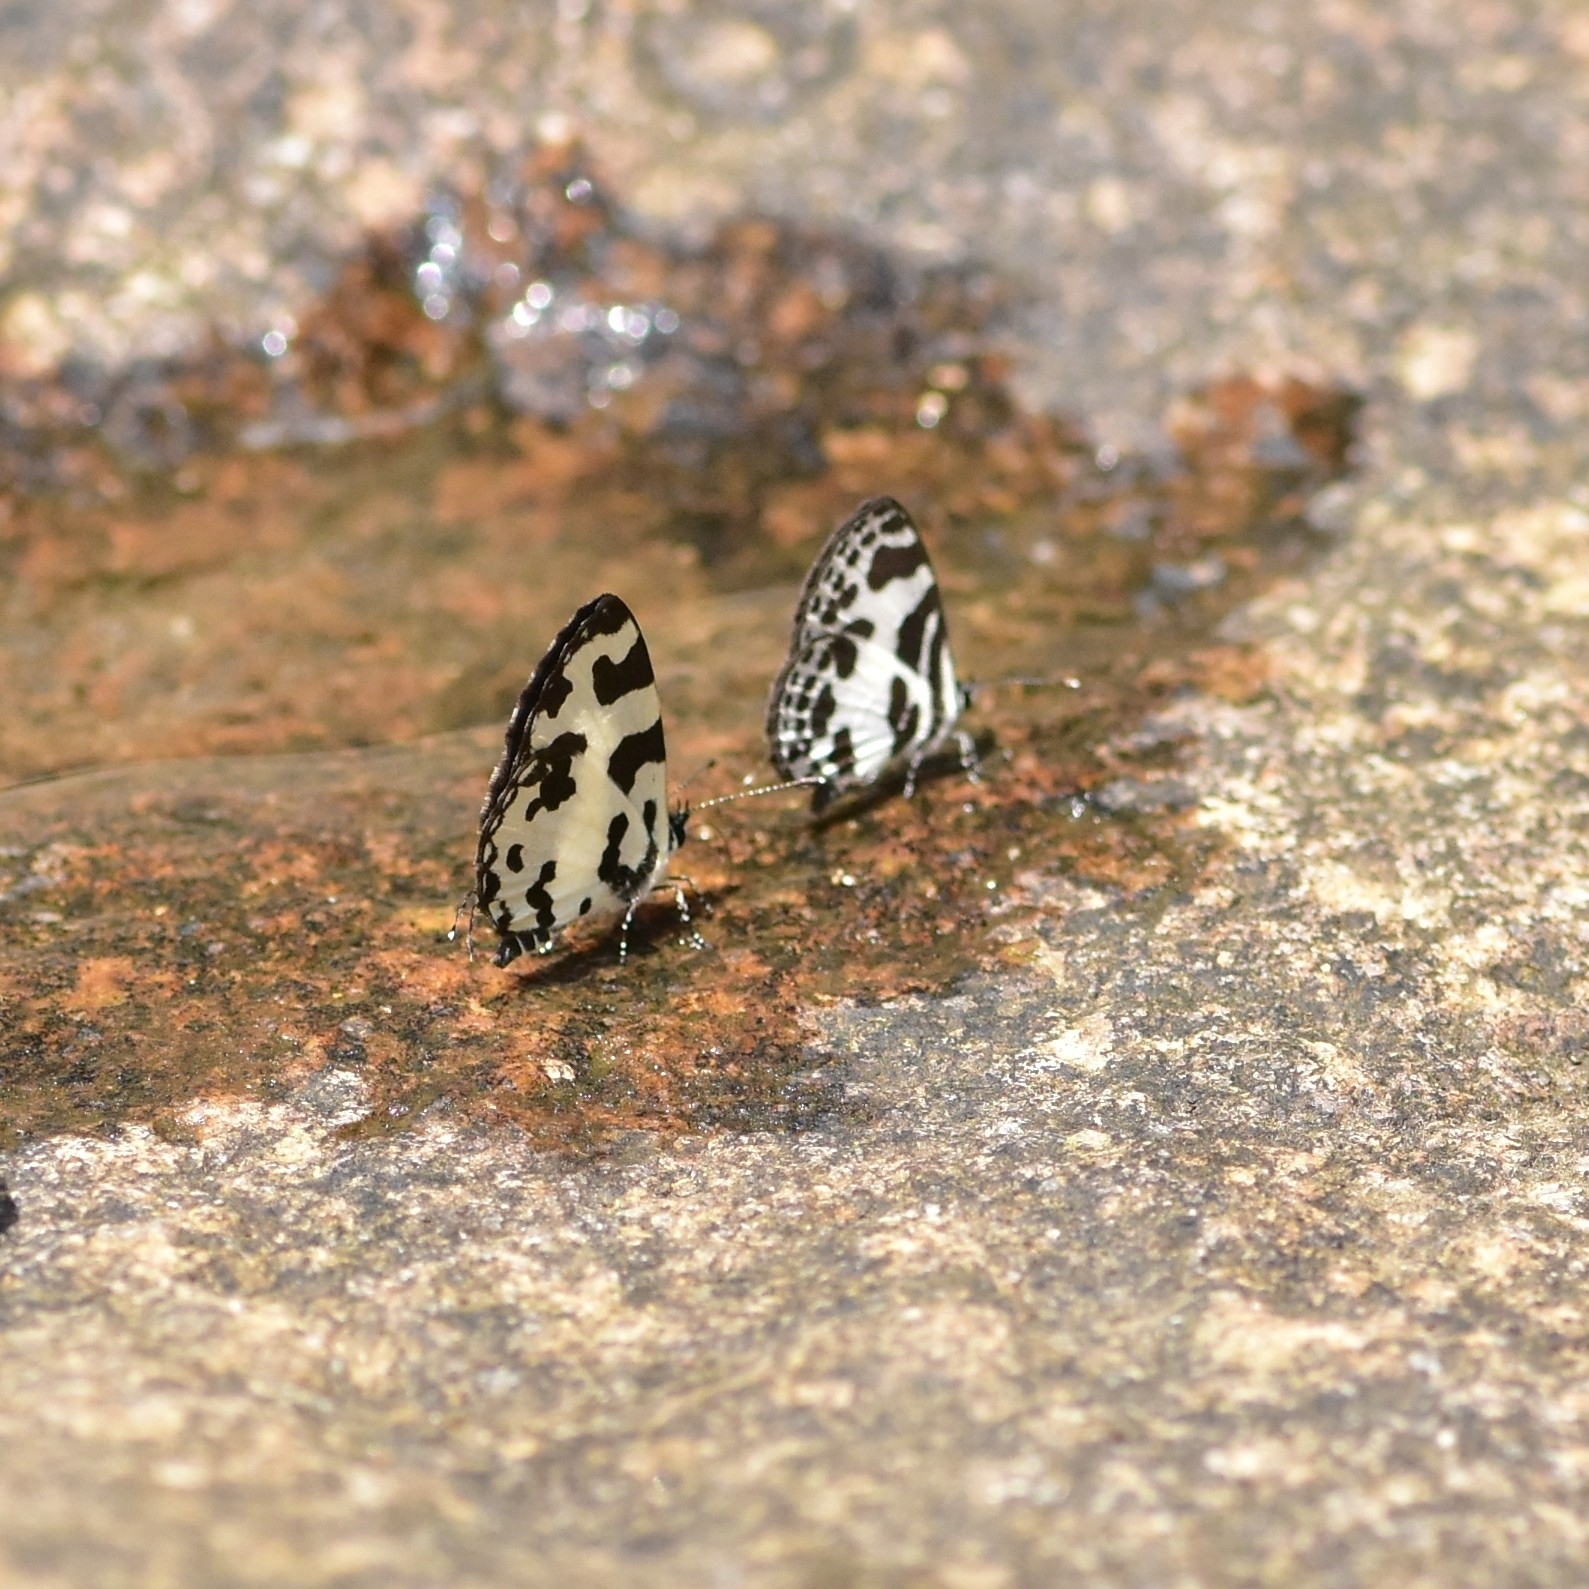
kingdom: Animalia
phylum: Arthropoda
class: Insecta
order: Lepidoptera
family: Lycaenidae
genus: Caleta
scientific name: Caleta decidia
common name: Angled pierrot
